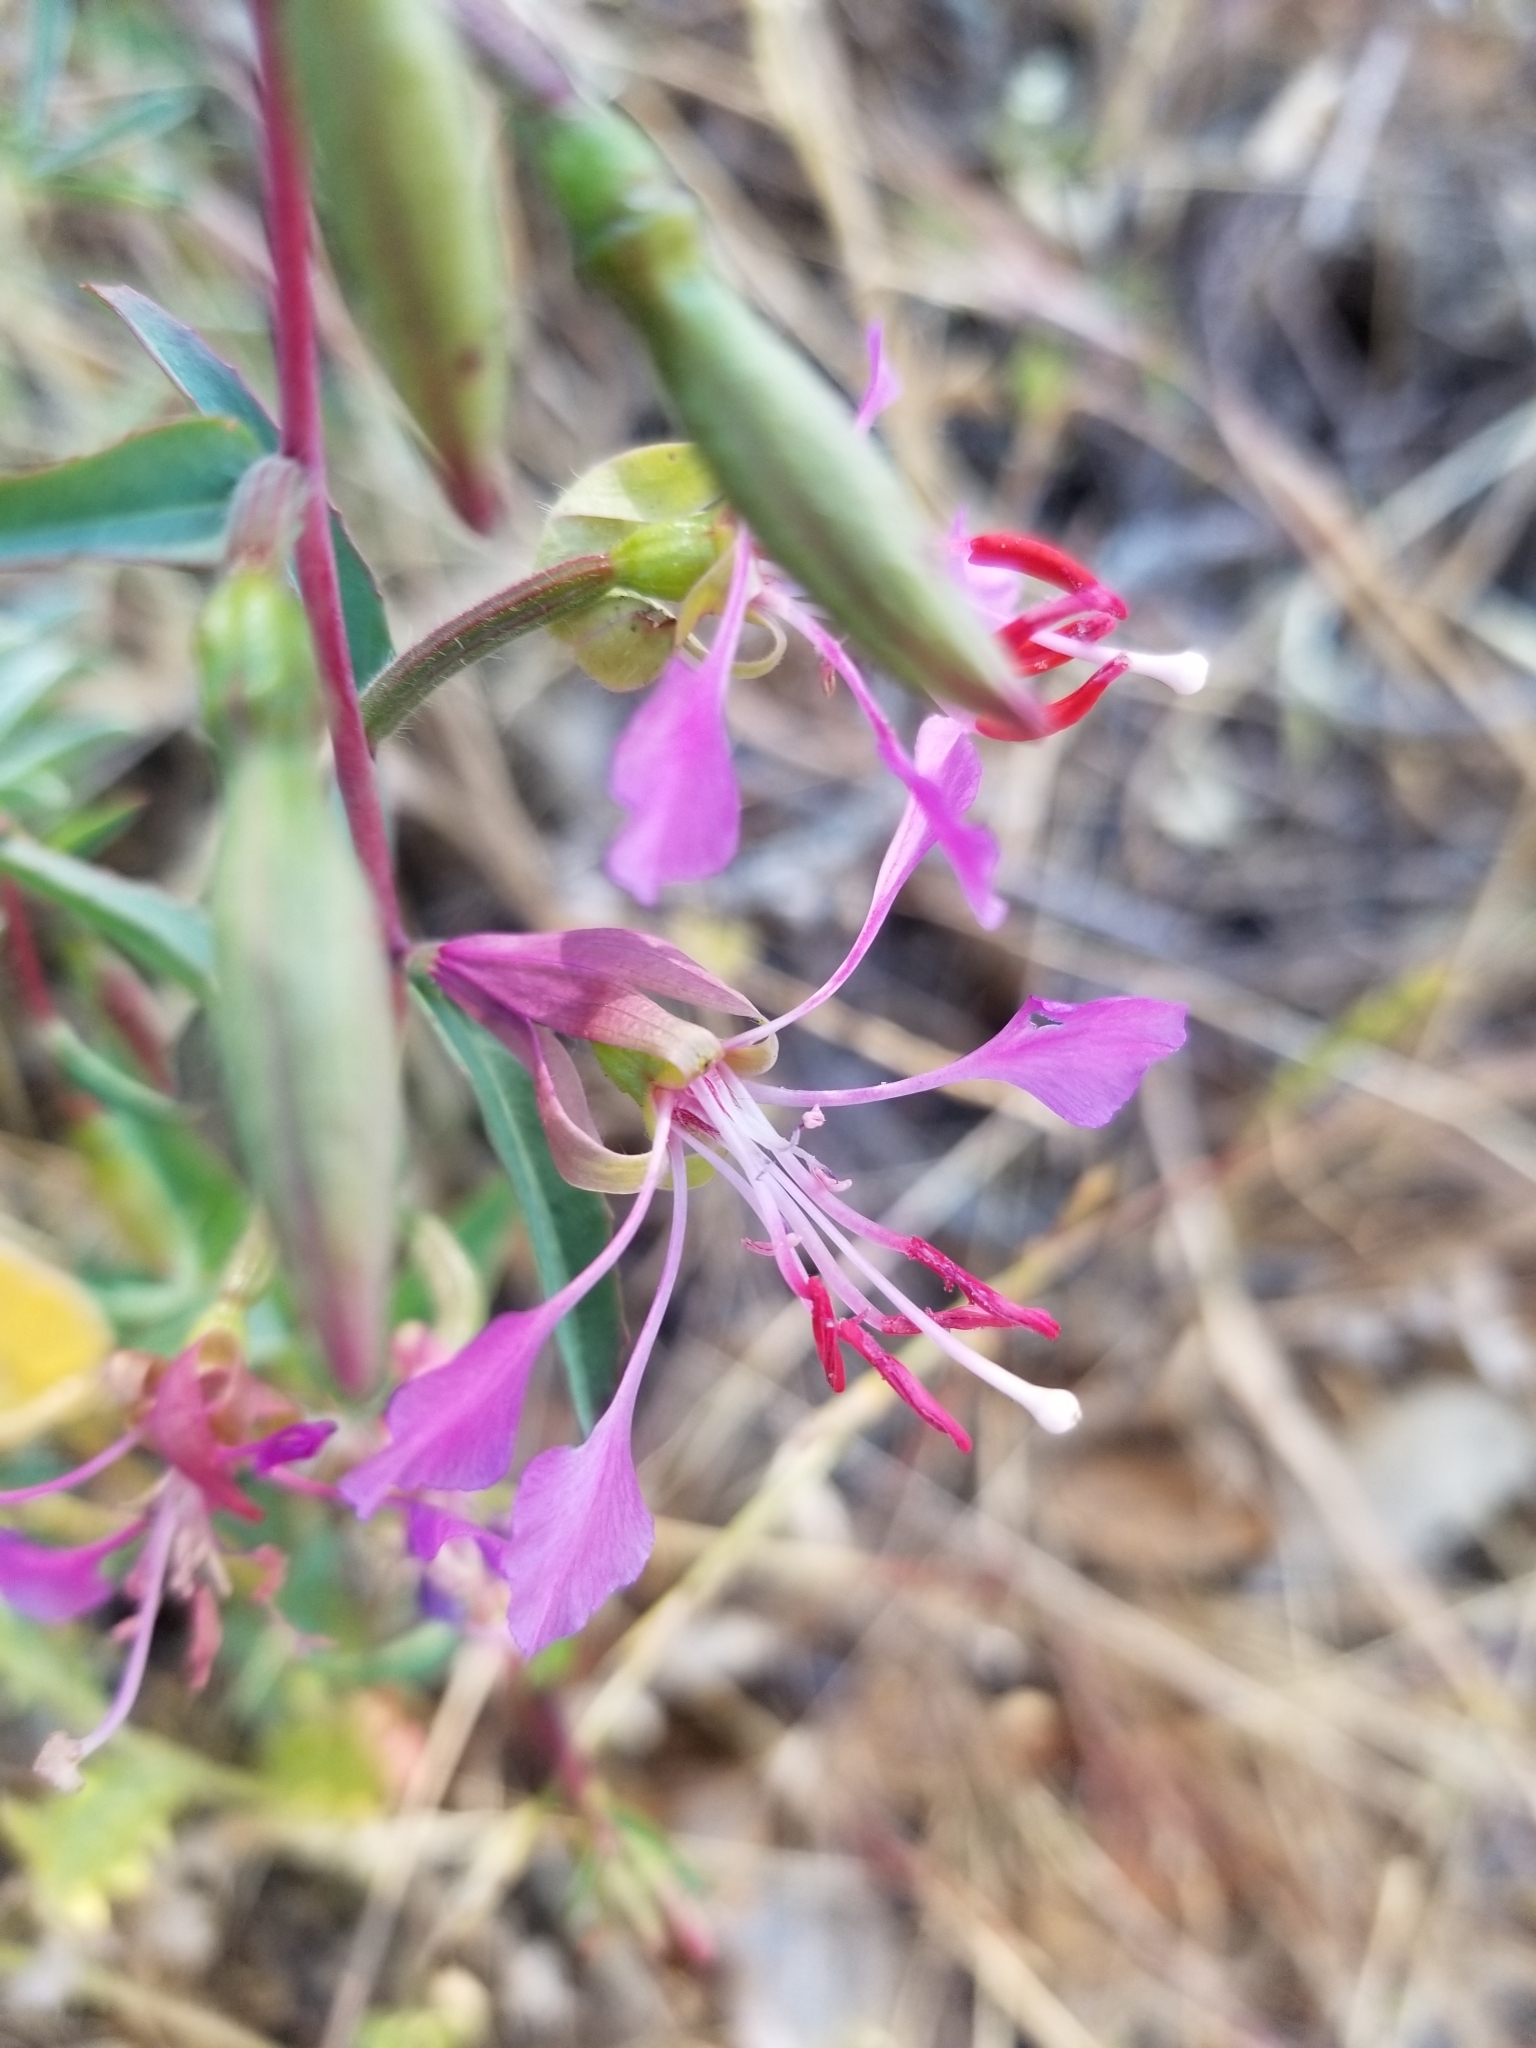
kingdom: Plantae
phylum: Tracheophyta
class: Magnoliopsida
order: Myrtales
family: Onagraceae
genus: Clarkia
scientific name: Clarkia unguiculata
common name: Clarkia
